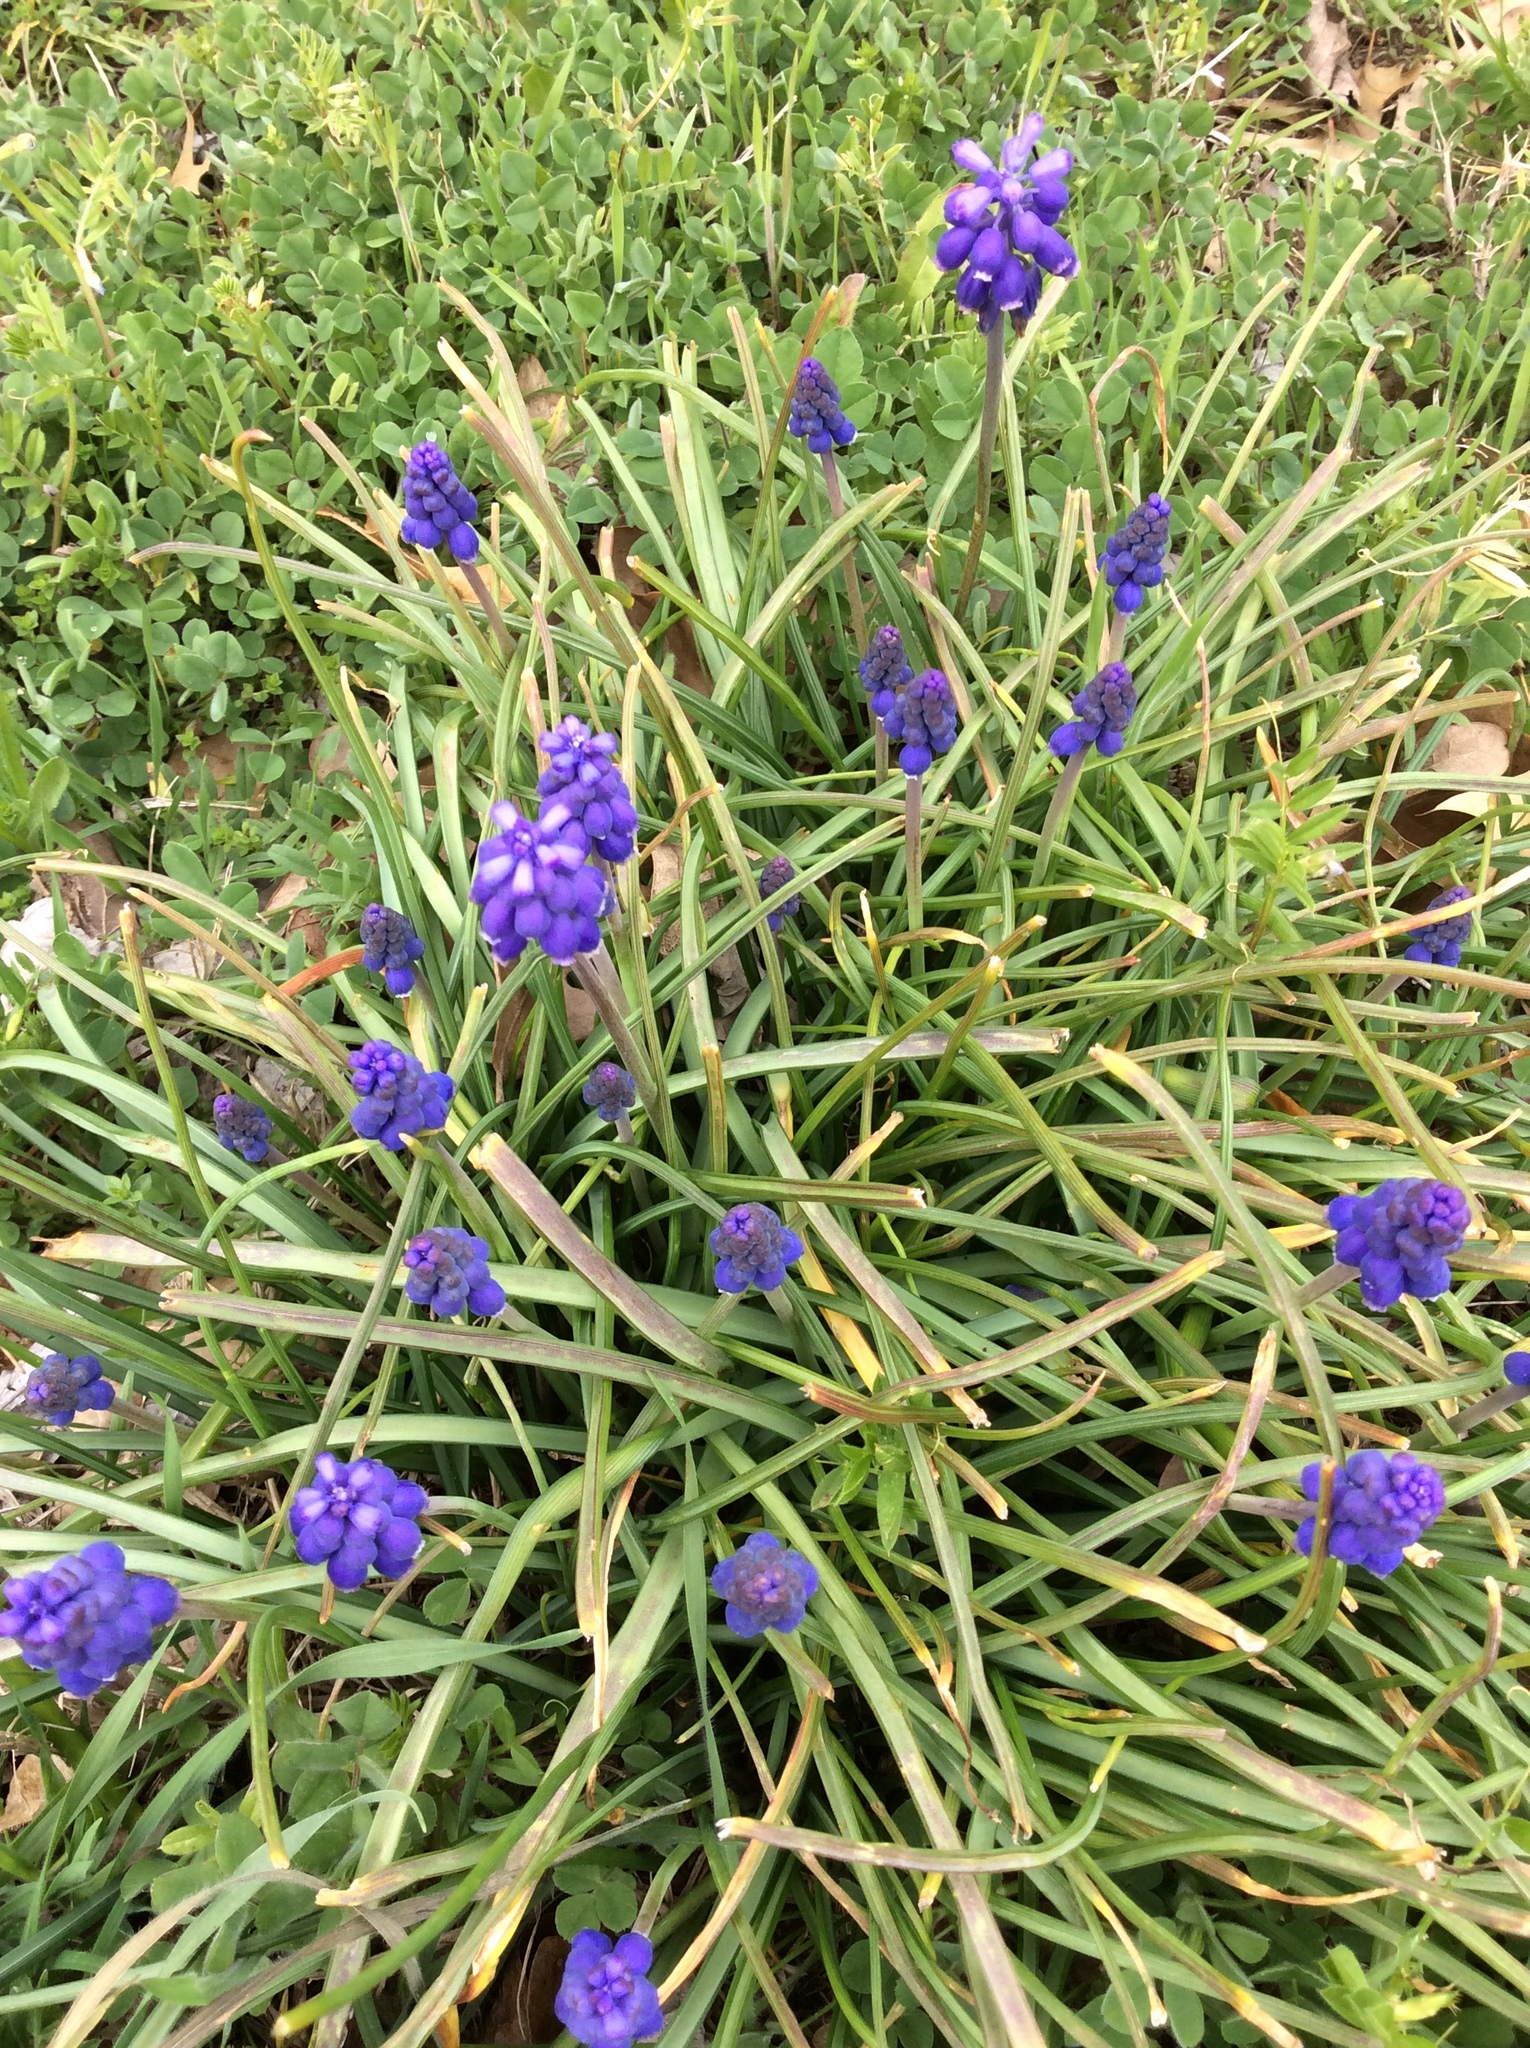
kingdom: Plantae
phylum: Tracheophyta
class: Liliopsida
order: Asparagales
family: Asparagaceae
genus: Muscari
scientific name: Muscari neglectum
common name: Grape-hyacinth
